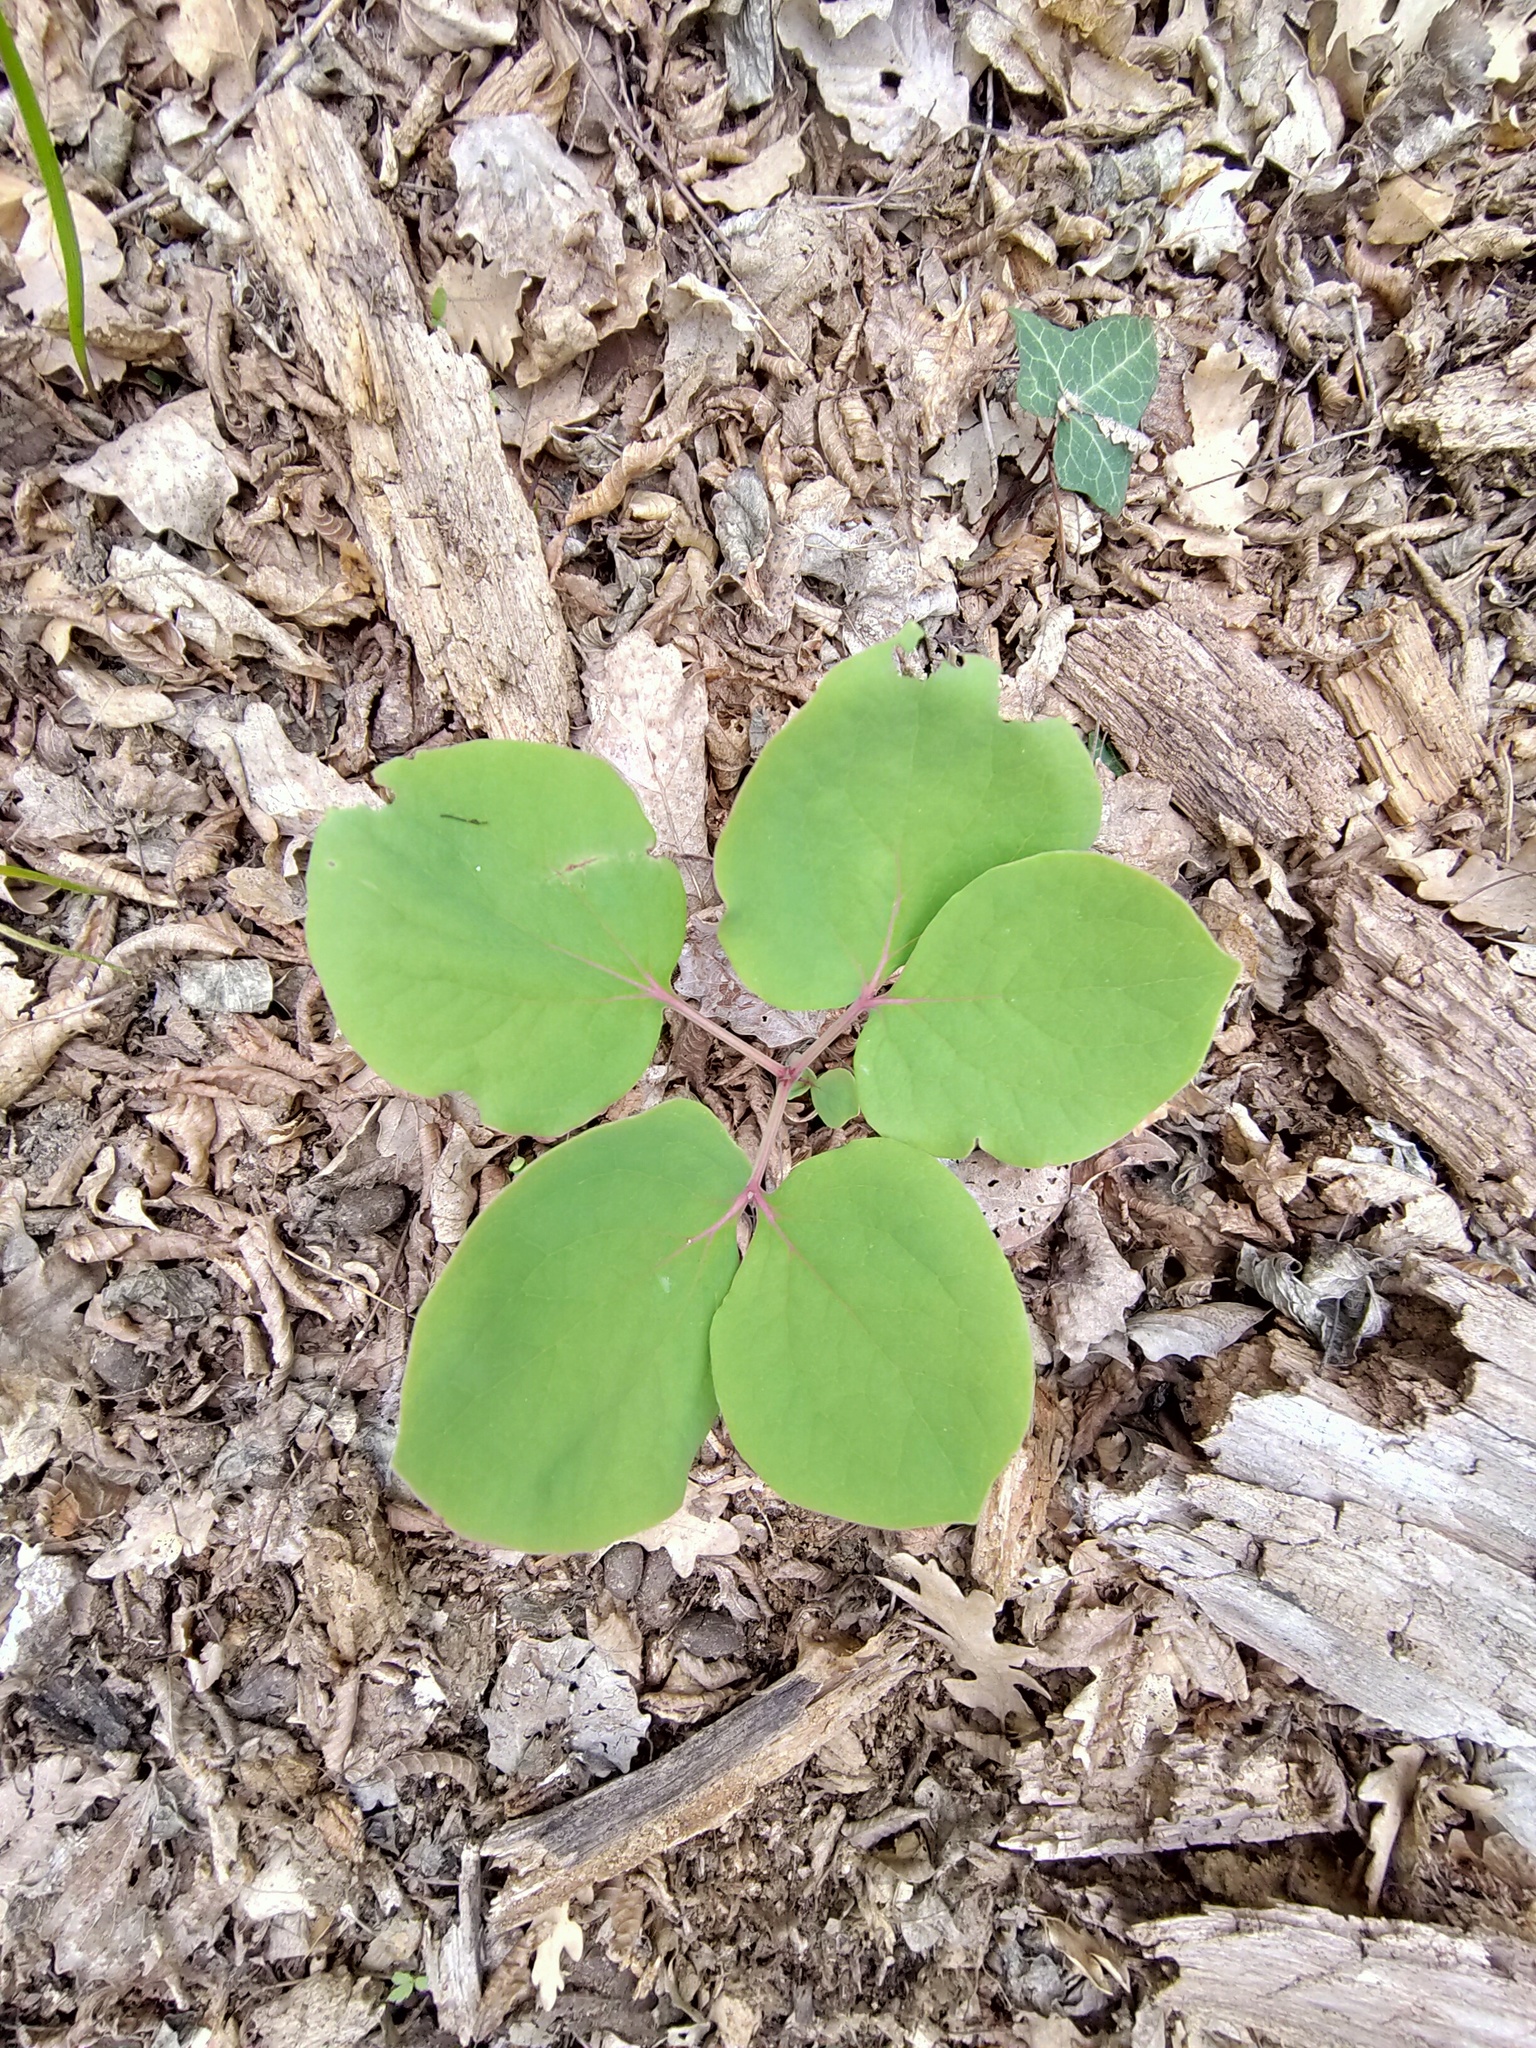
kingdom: Plantae
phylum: Tracheophyta
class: Magnoliopsida
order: Saxifragales
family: Paeoniaceae
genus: Paeonia
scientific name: Paeonia daurica
